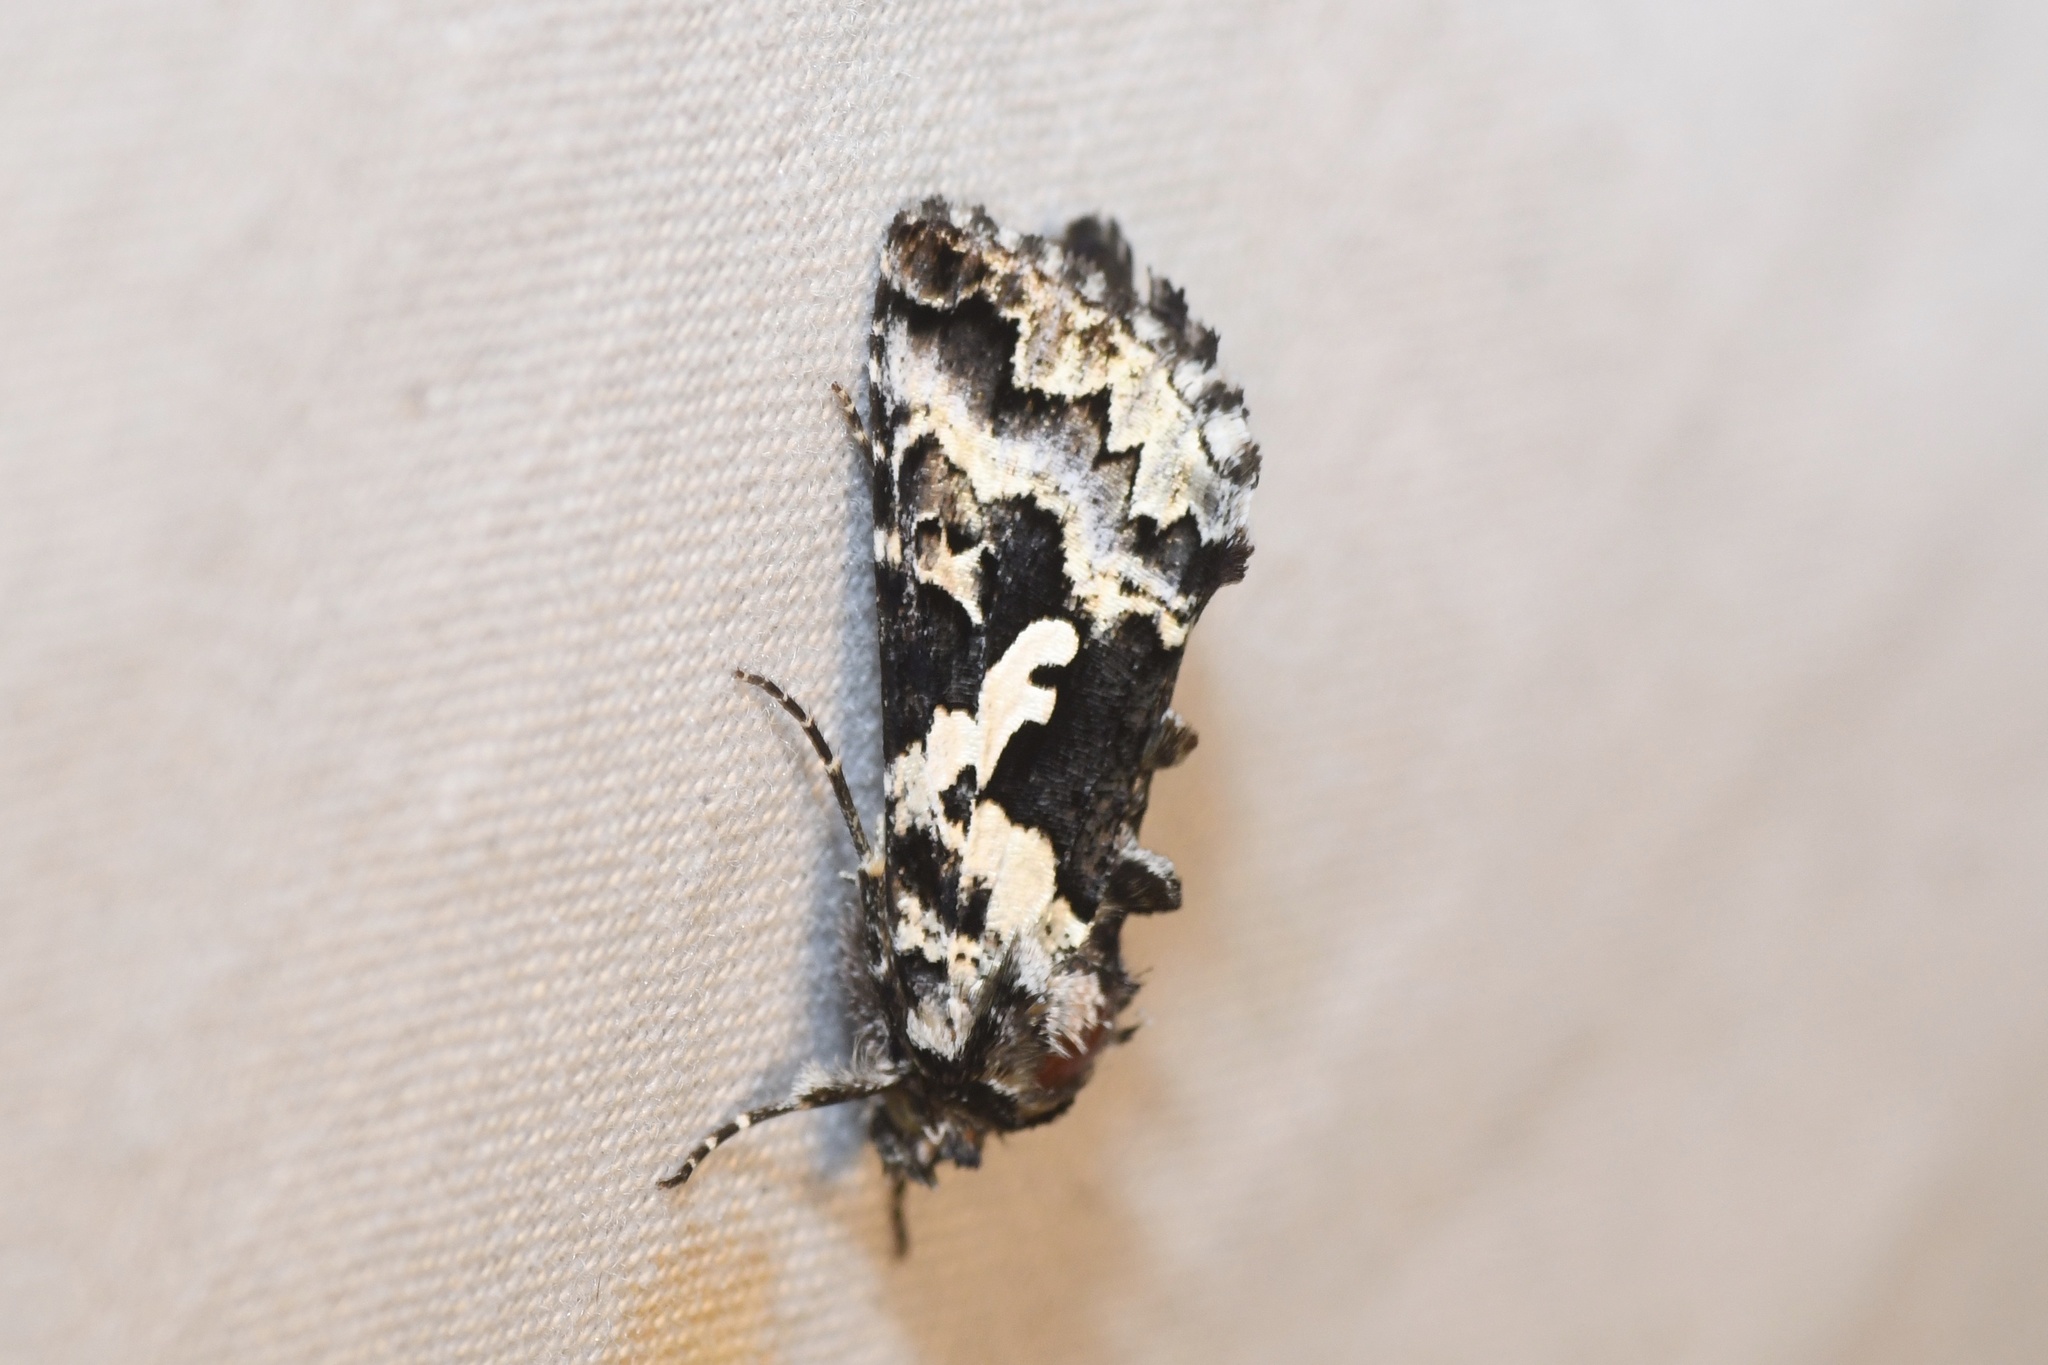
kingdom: Animalia
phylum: Arthropoda
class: Insecta
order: Lepidoptera
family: Noctuidae
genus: Syngrapha
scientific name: Syngrapha rectangula
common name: Angulated cutworm
